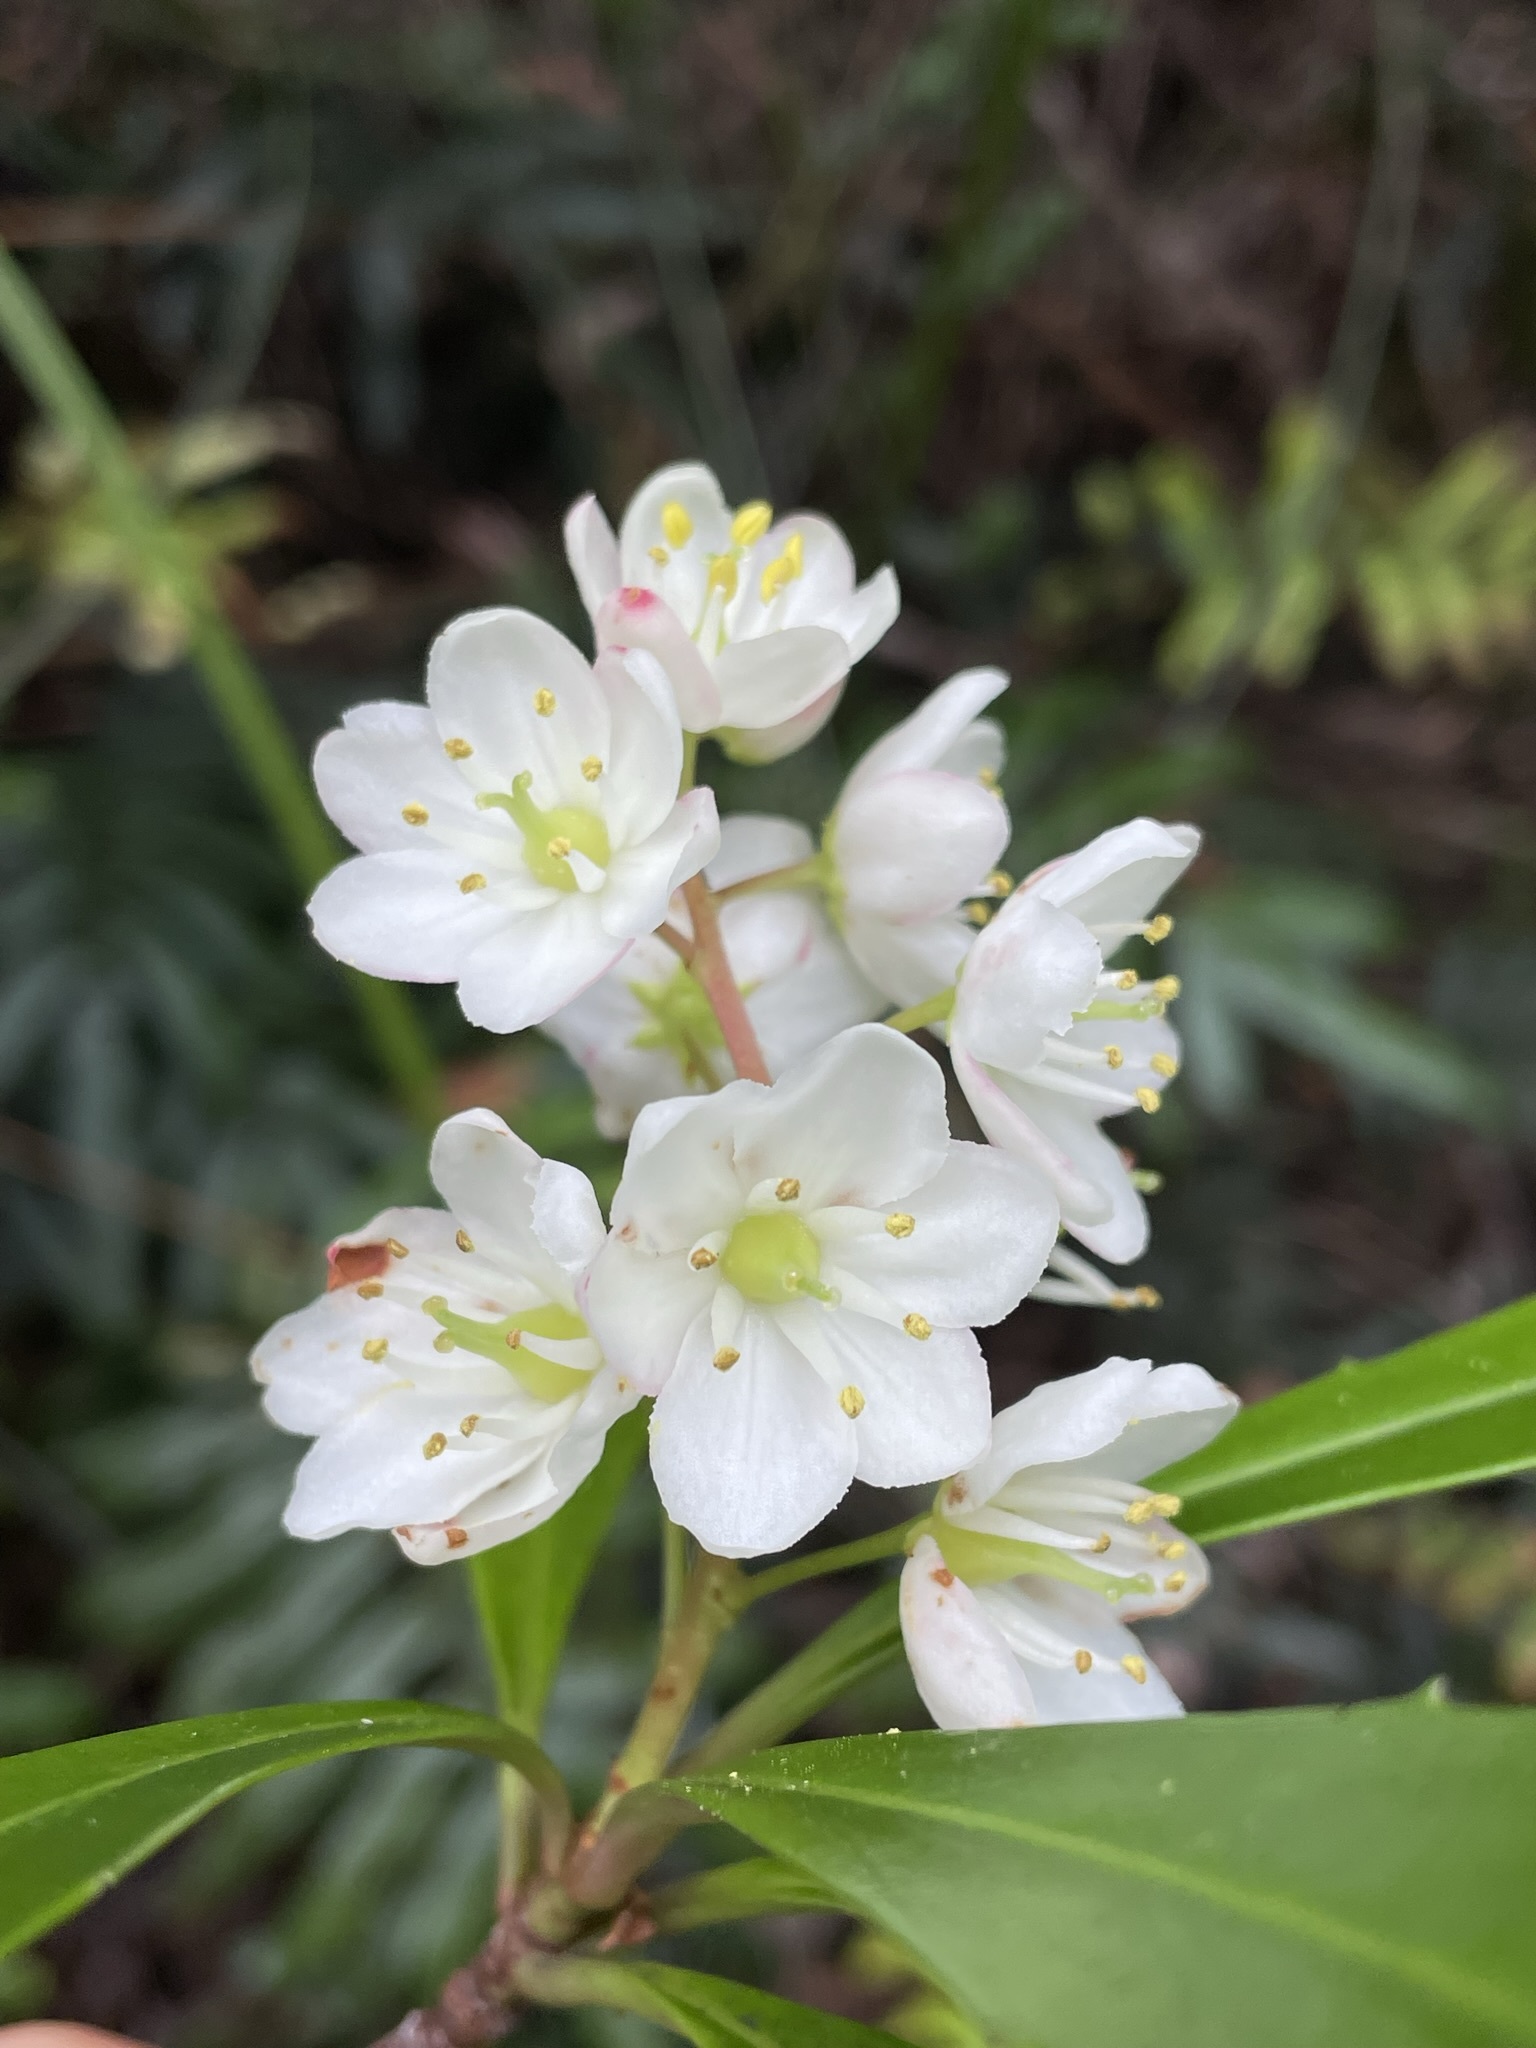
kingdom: Plantae
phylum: Tracheophyta
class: Magnoliopsida
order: Escalloniales
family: Escalloniaceae
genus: Anopterus
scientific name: Anopterus glandulosus
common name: Tasmanian-laurel
